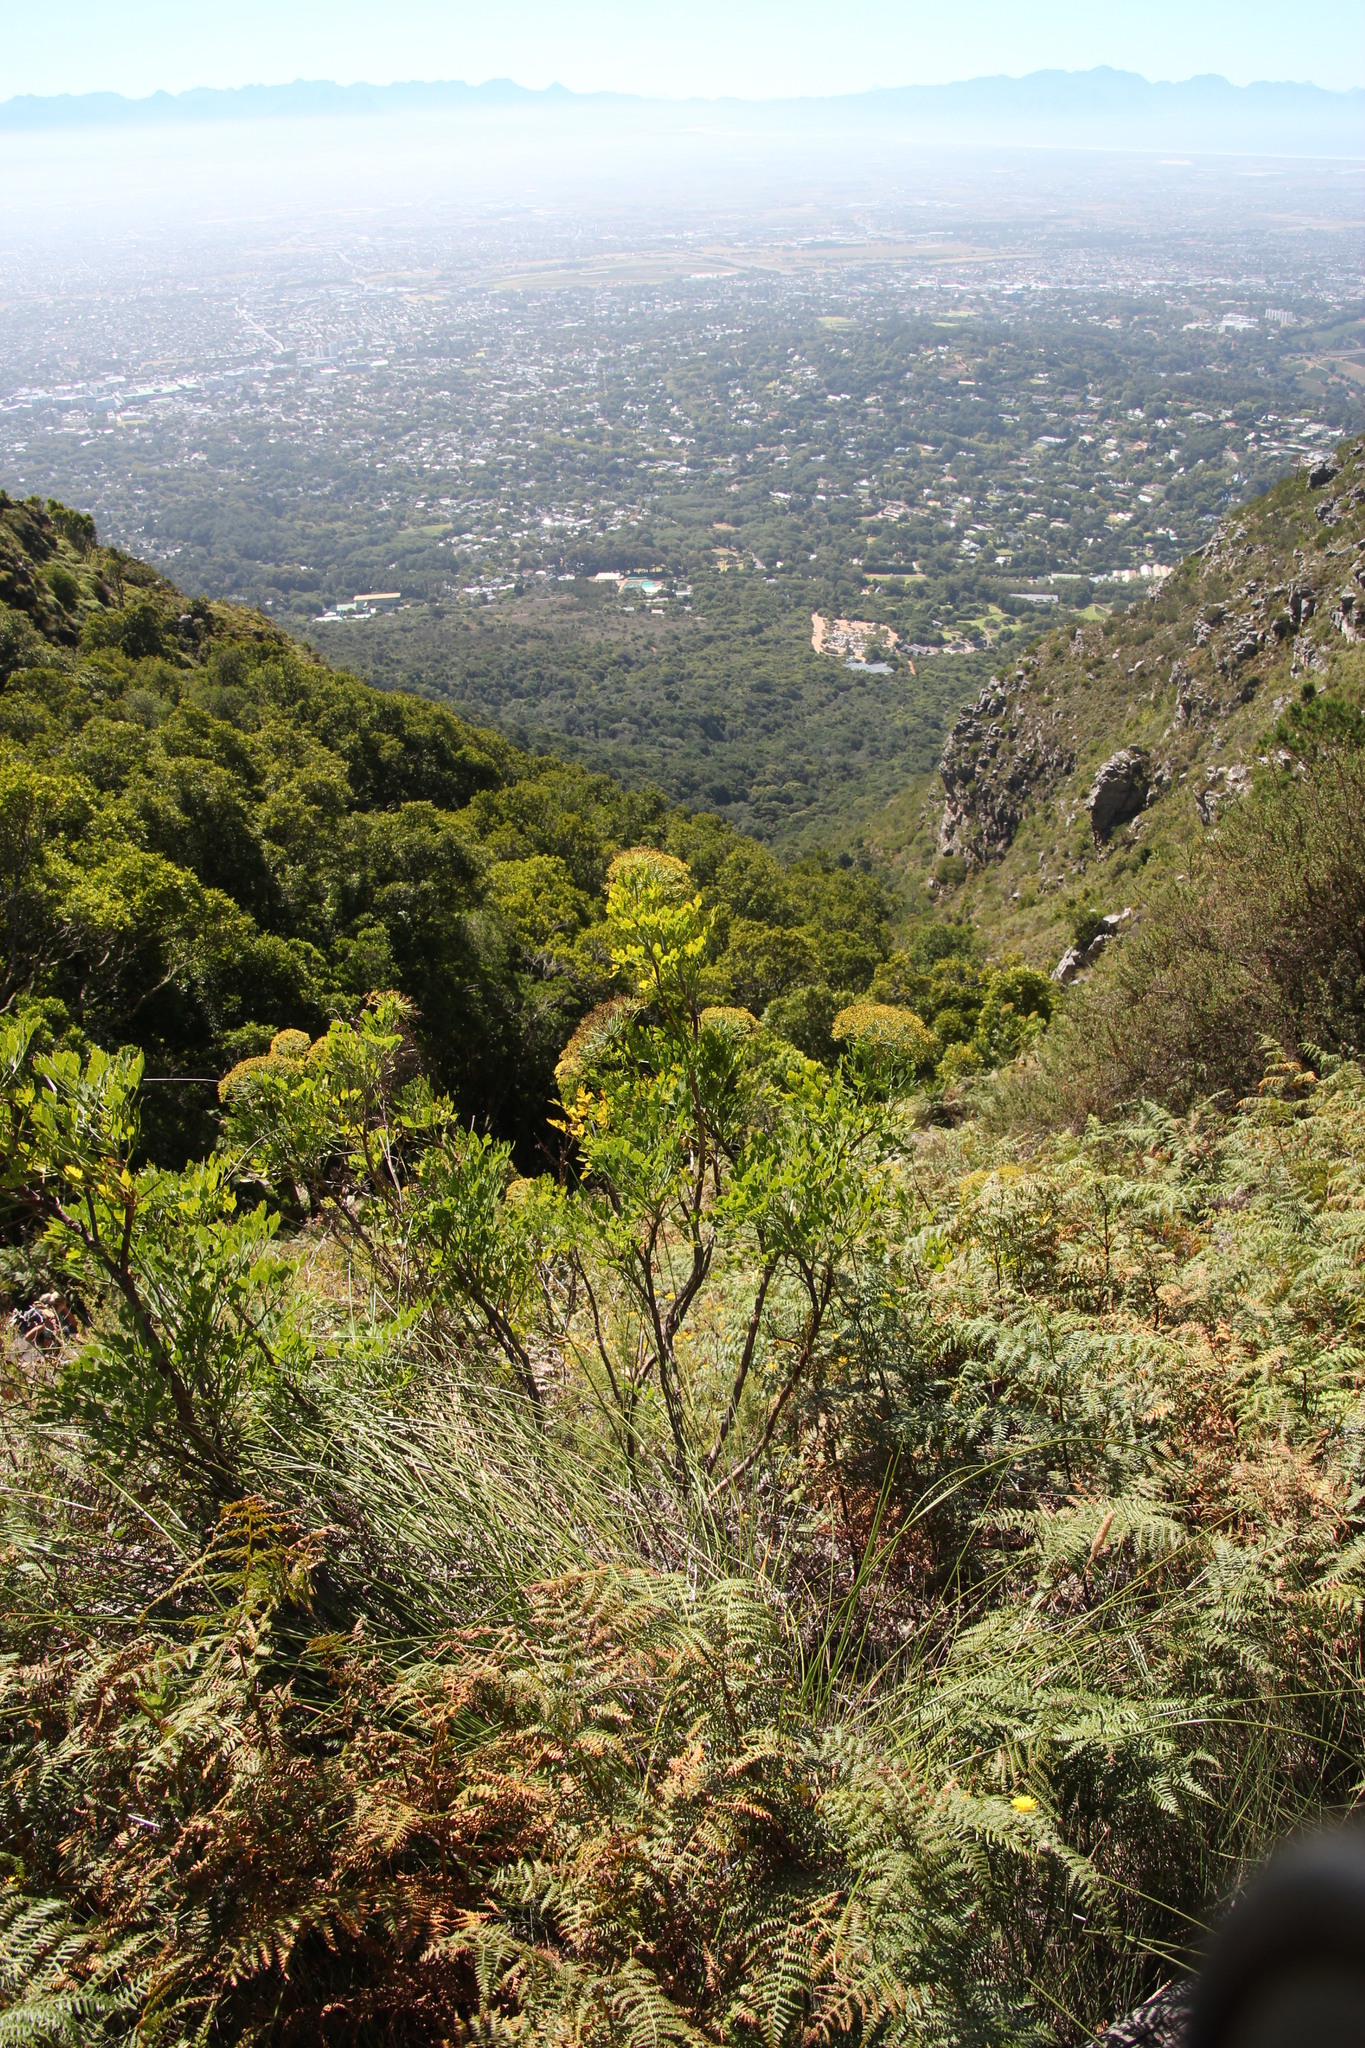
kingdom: Plantae
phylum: Tracheophyta
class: Magnoliopsida
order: Apiales
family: Apiaceae
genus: Notobubon
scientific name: Notobubon galbanum
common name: Blisterbush
